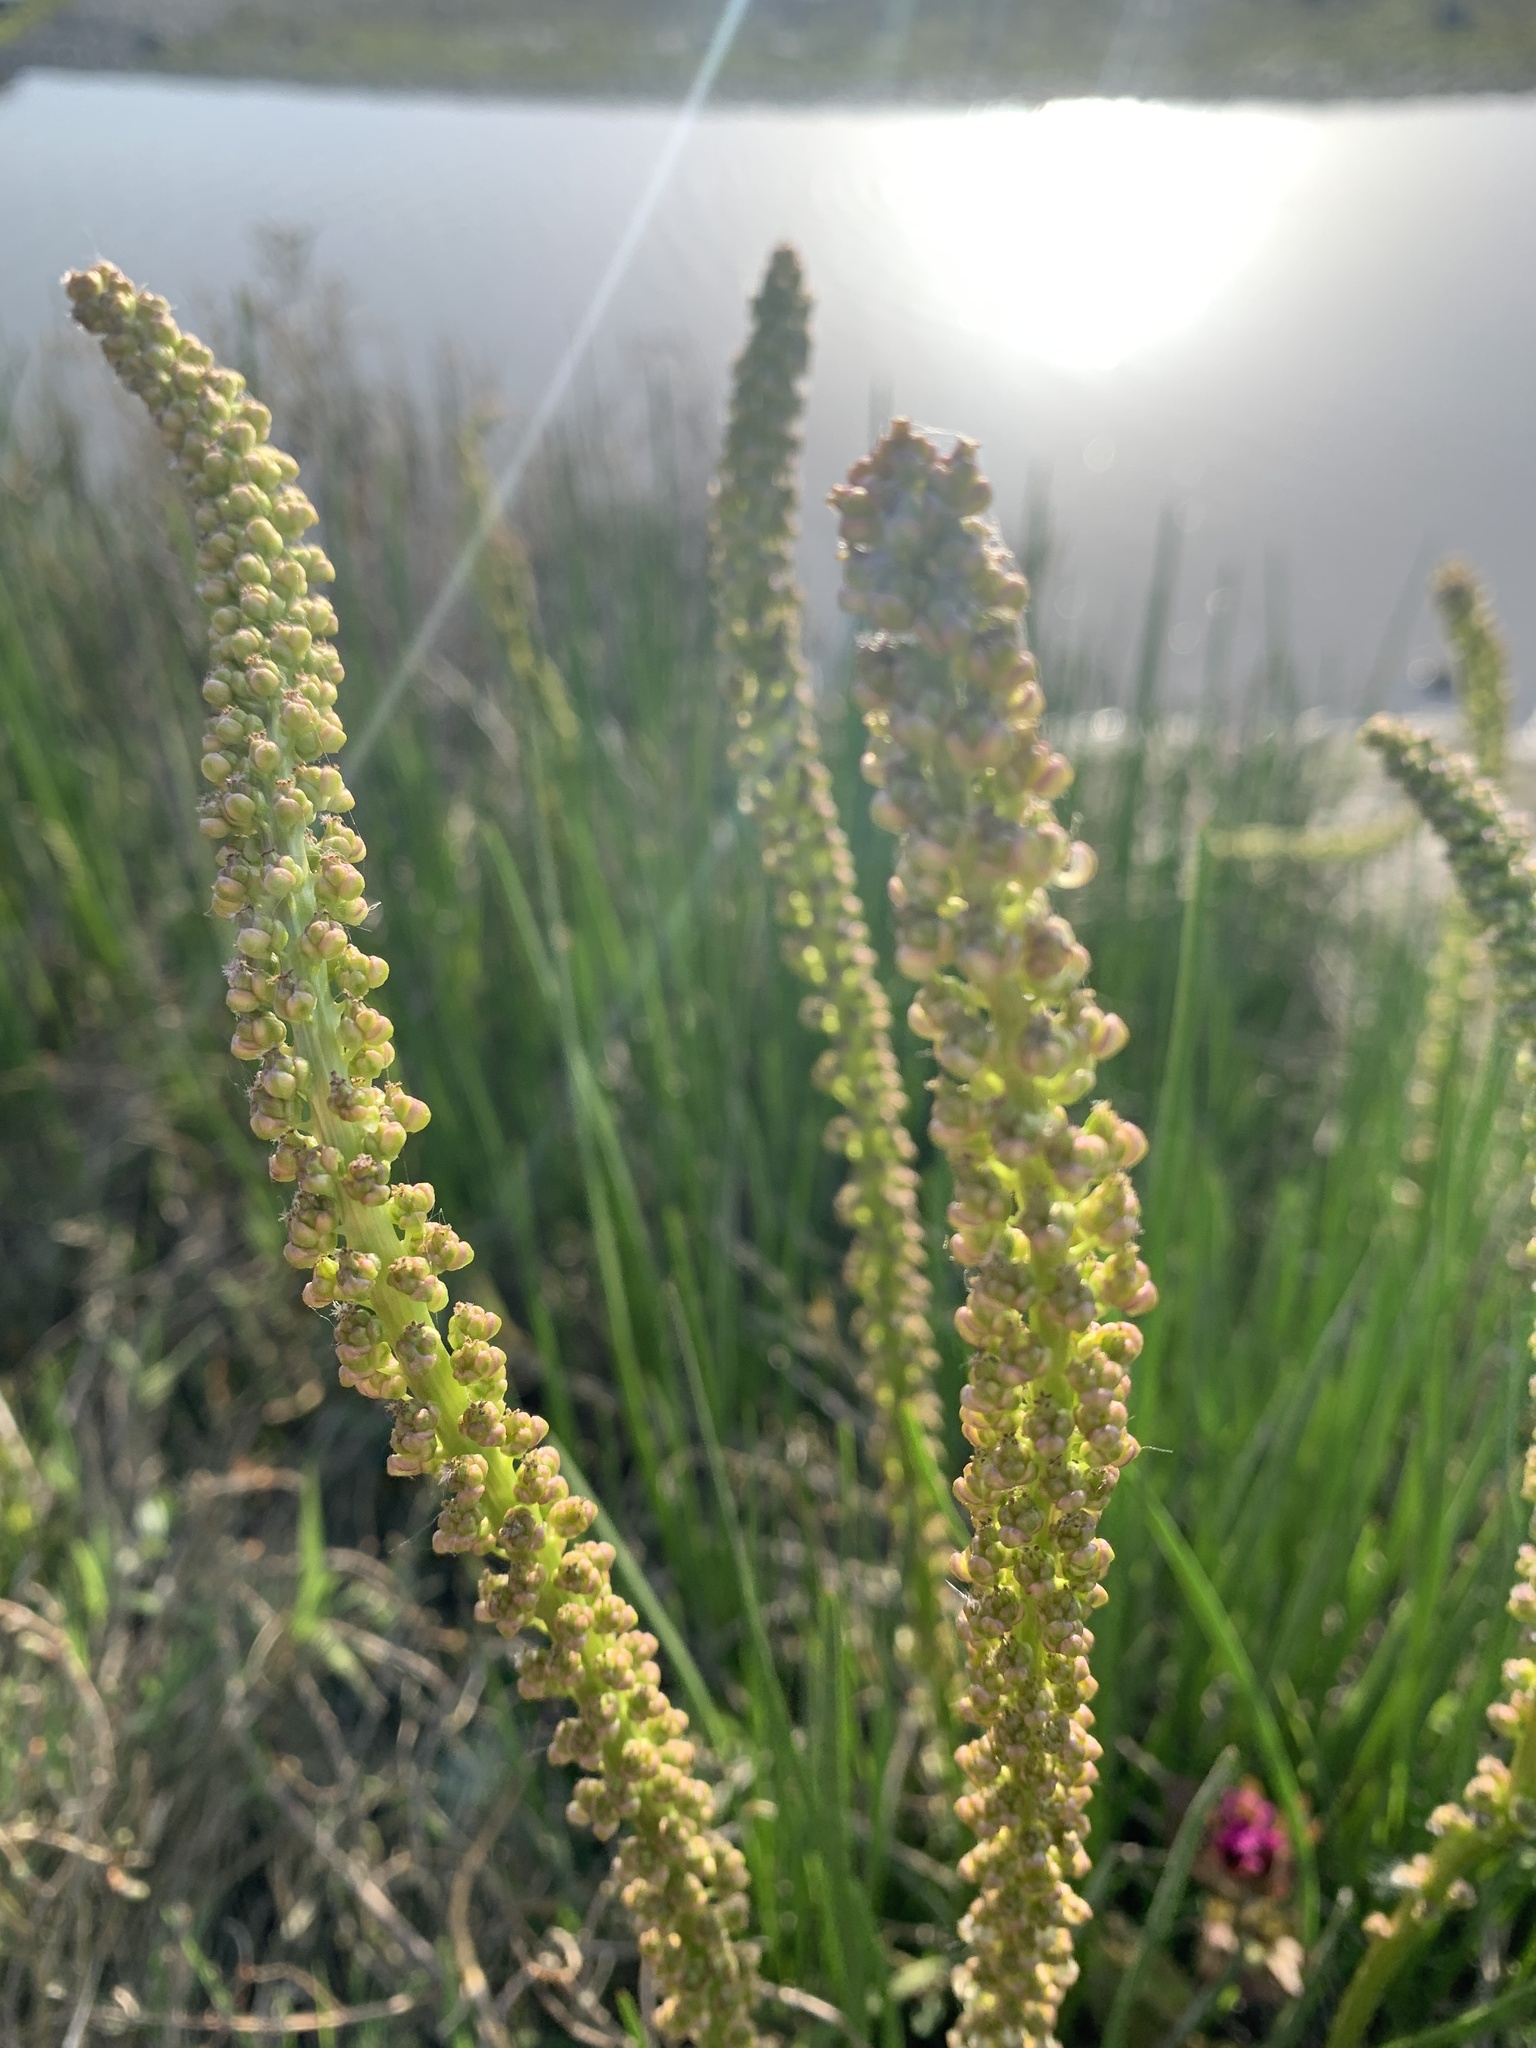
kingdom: Plantae
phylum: Tracheophyta
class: Liliopsida
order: Alismatales
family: Juncaginaceae
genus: Triglochin
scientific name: Triglochin maritima
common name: Sea arrowgrass
